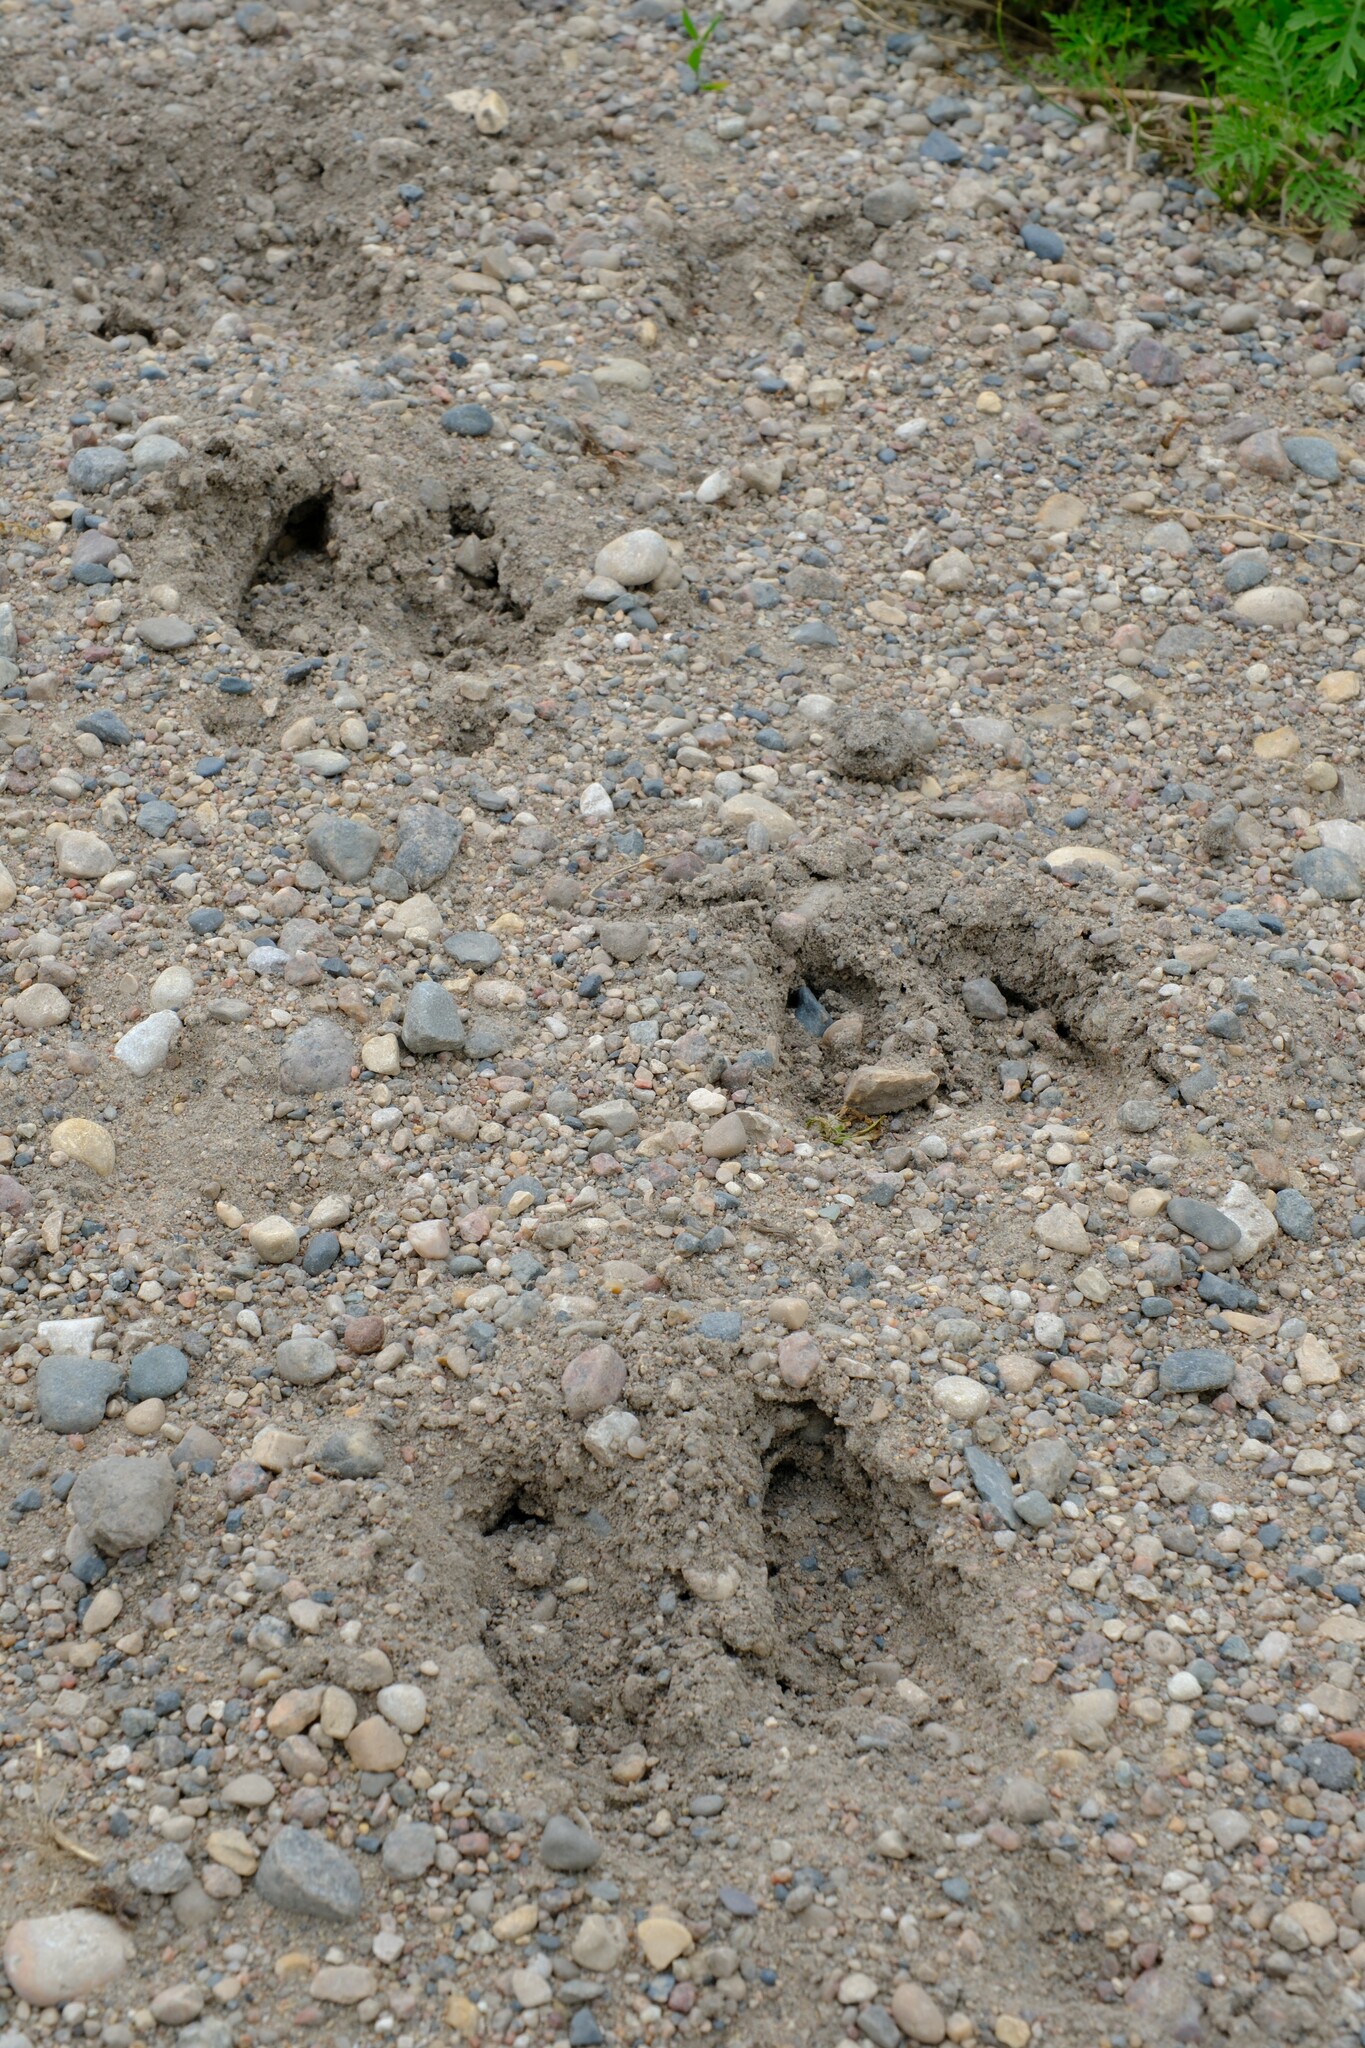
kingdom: Animalia
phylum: Chordata
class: Mammalia
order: Artiodactyla
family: Cervidae
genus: Alces
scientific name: Alces alces
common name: Moose
